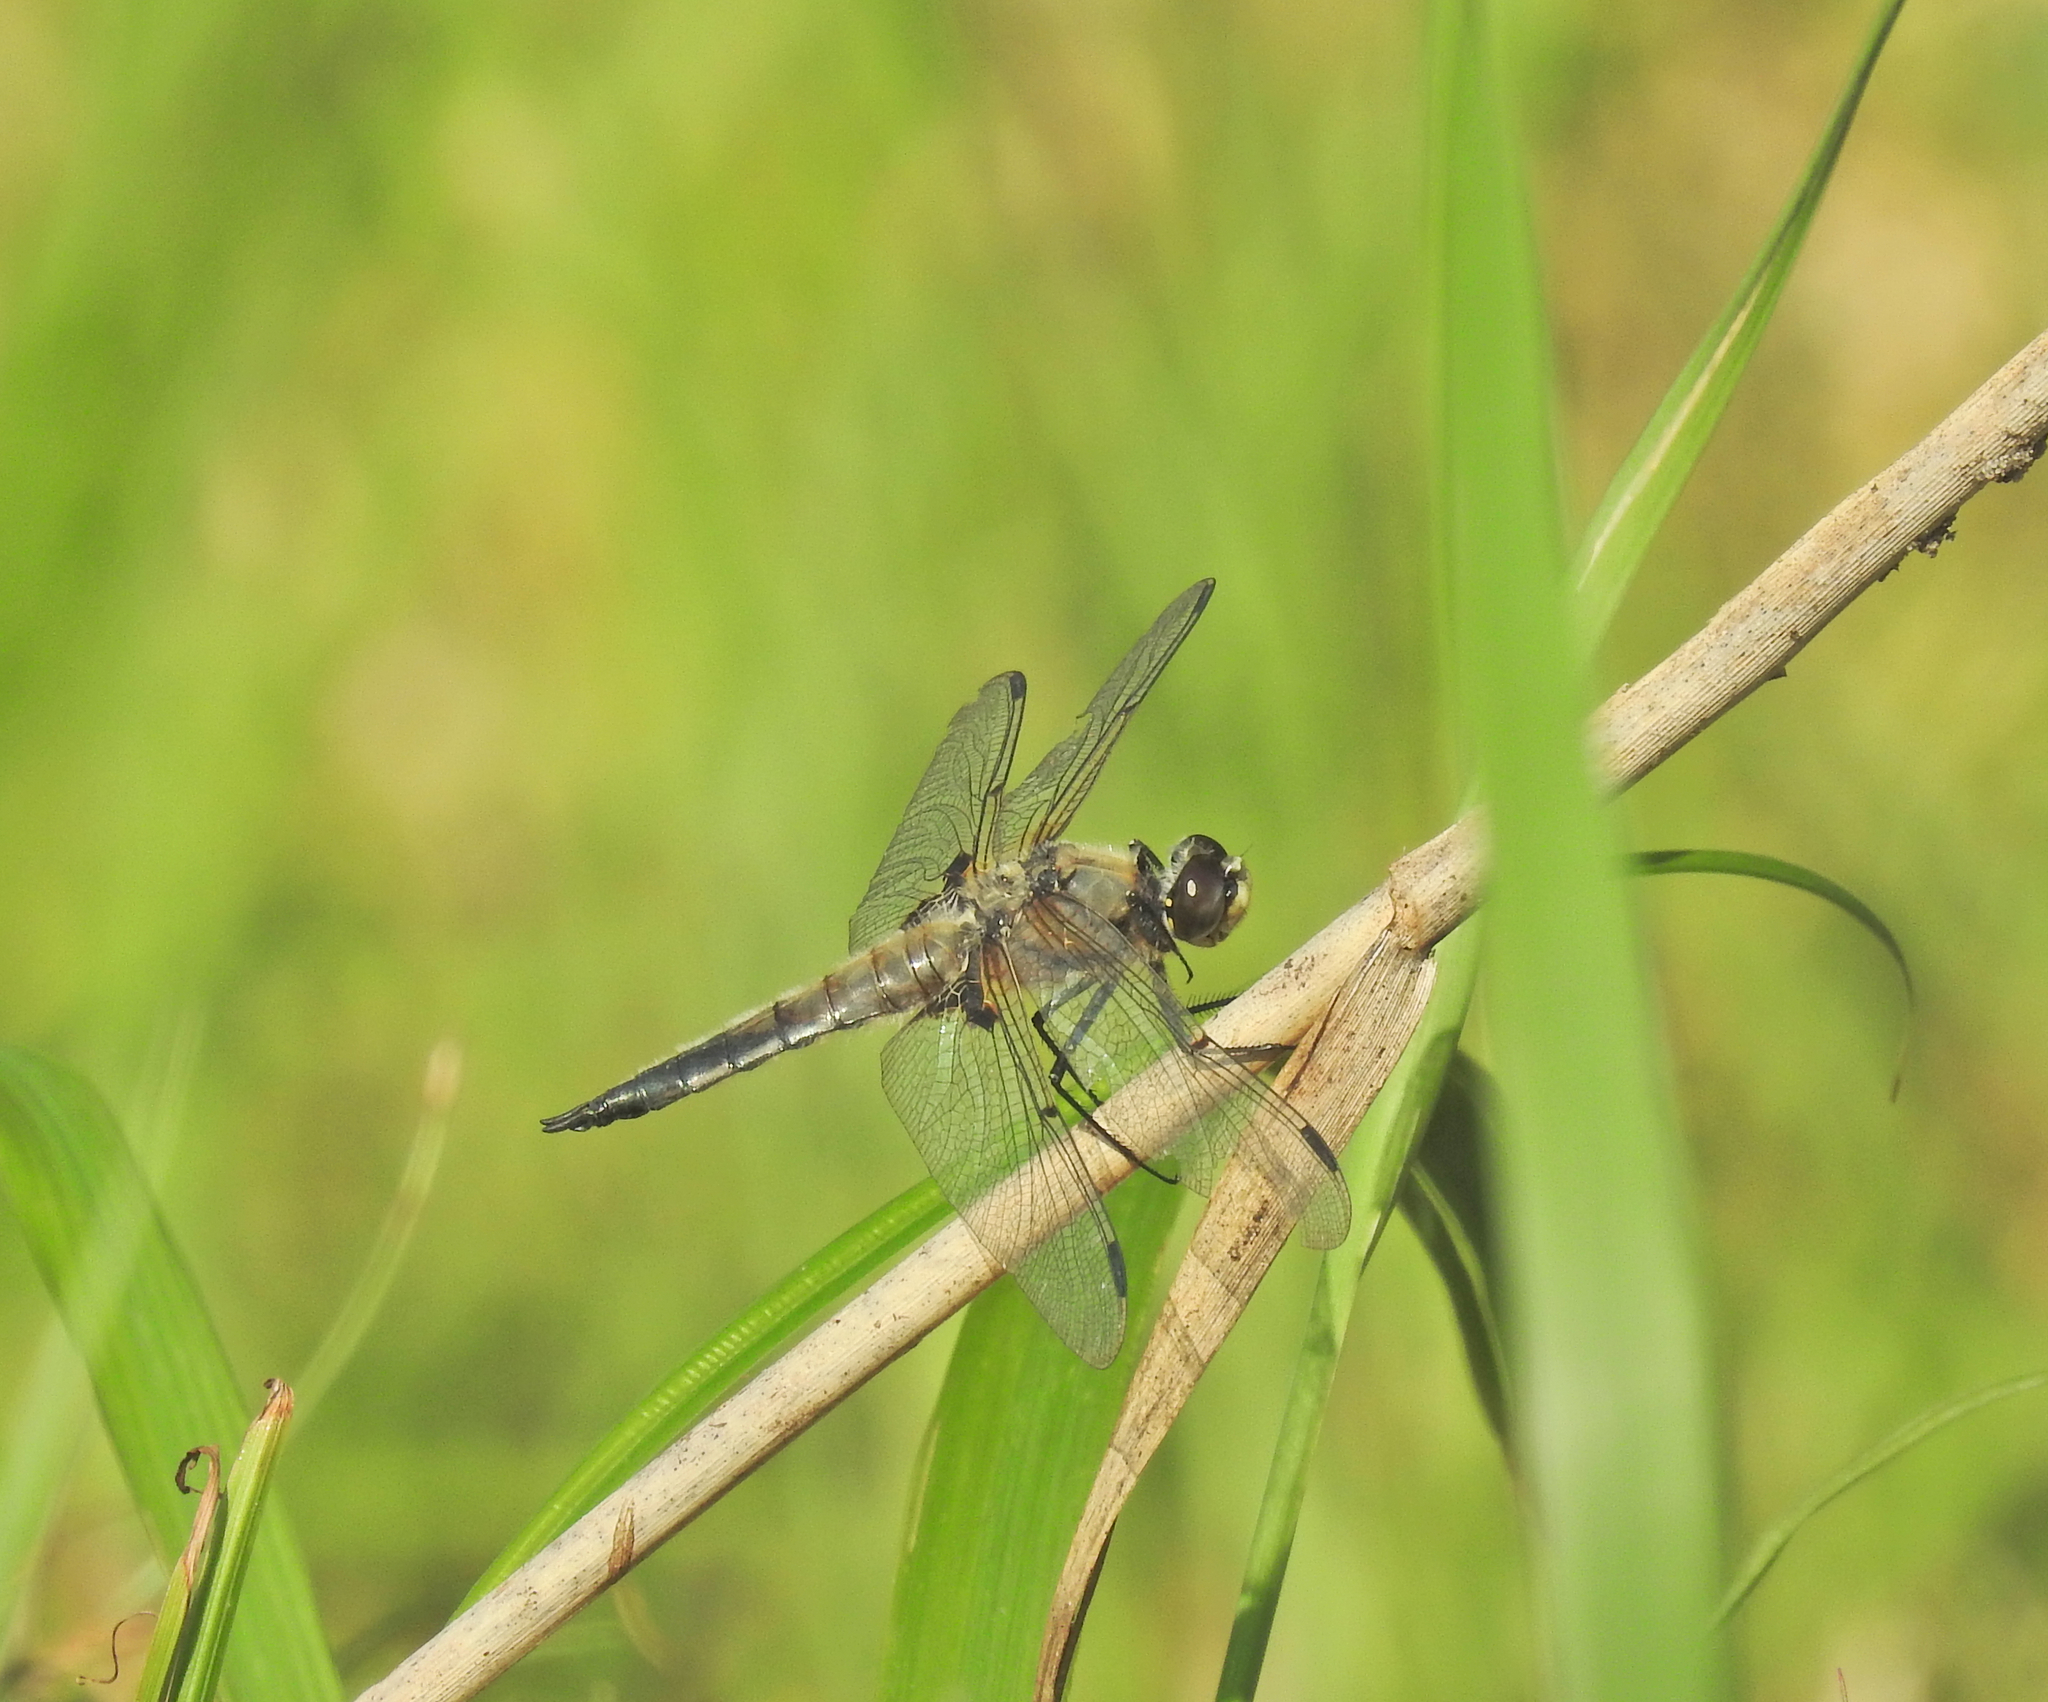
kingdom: Animalia
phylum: Arthropoda
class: Insecta
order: Odonata
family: Libellulidae
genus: Libellula
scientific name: Libellula quadrimaculata
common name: Four-spotted chaser
